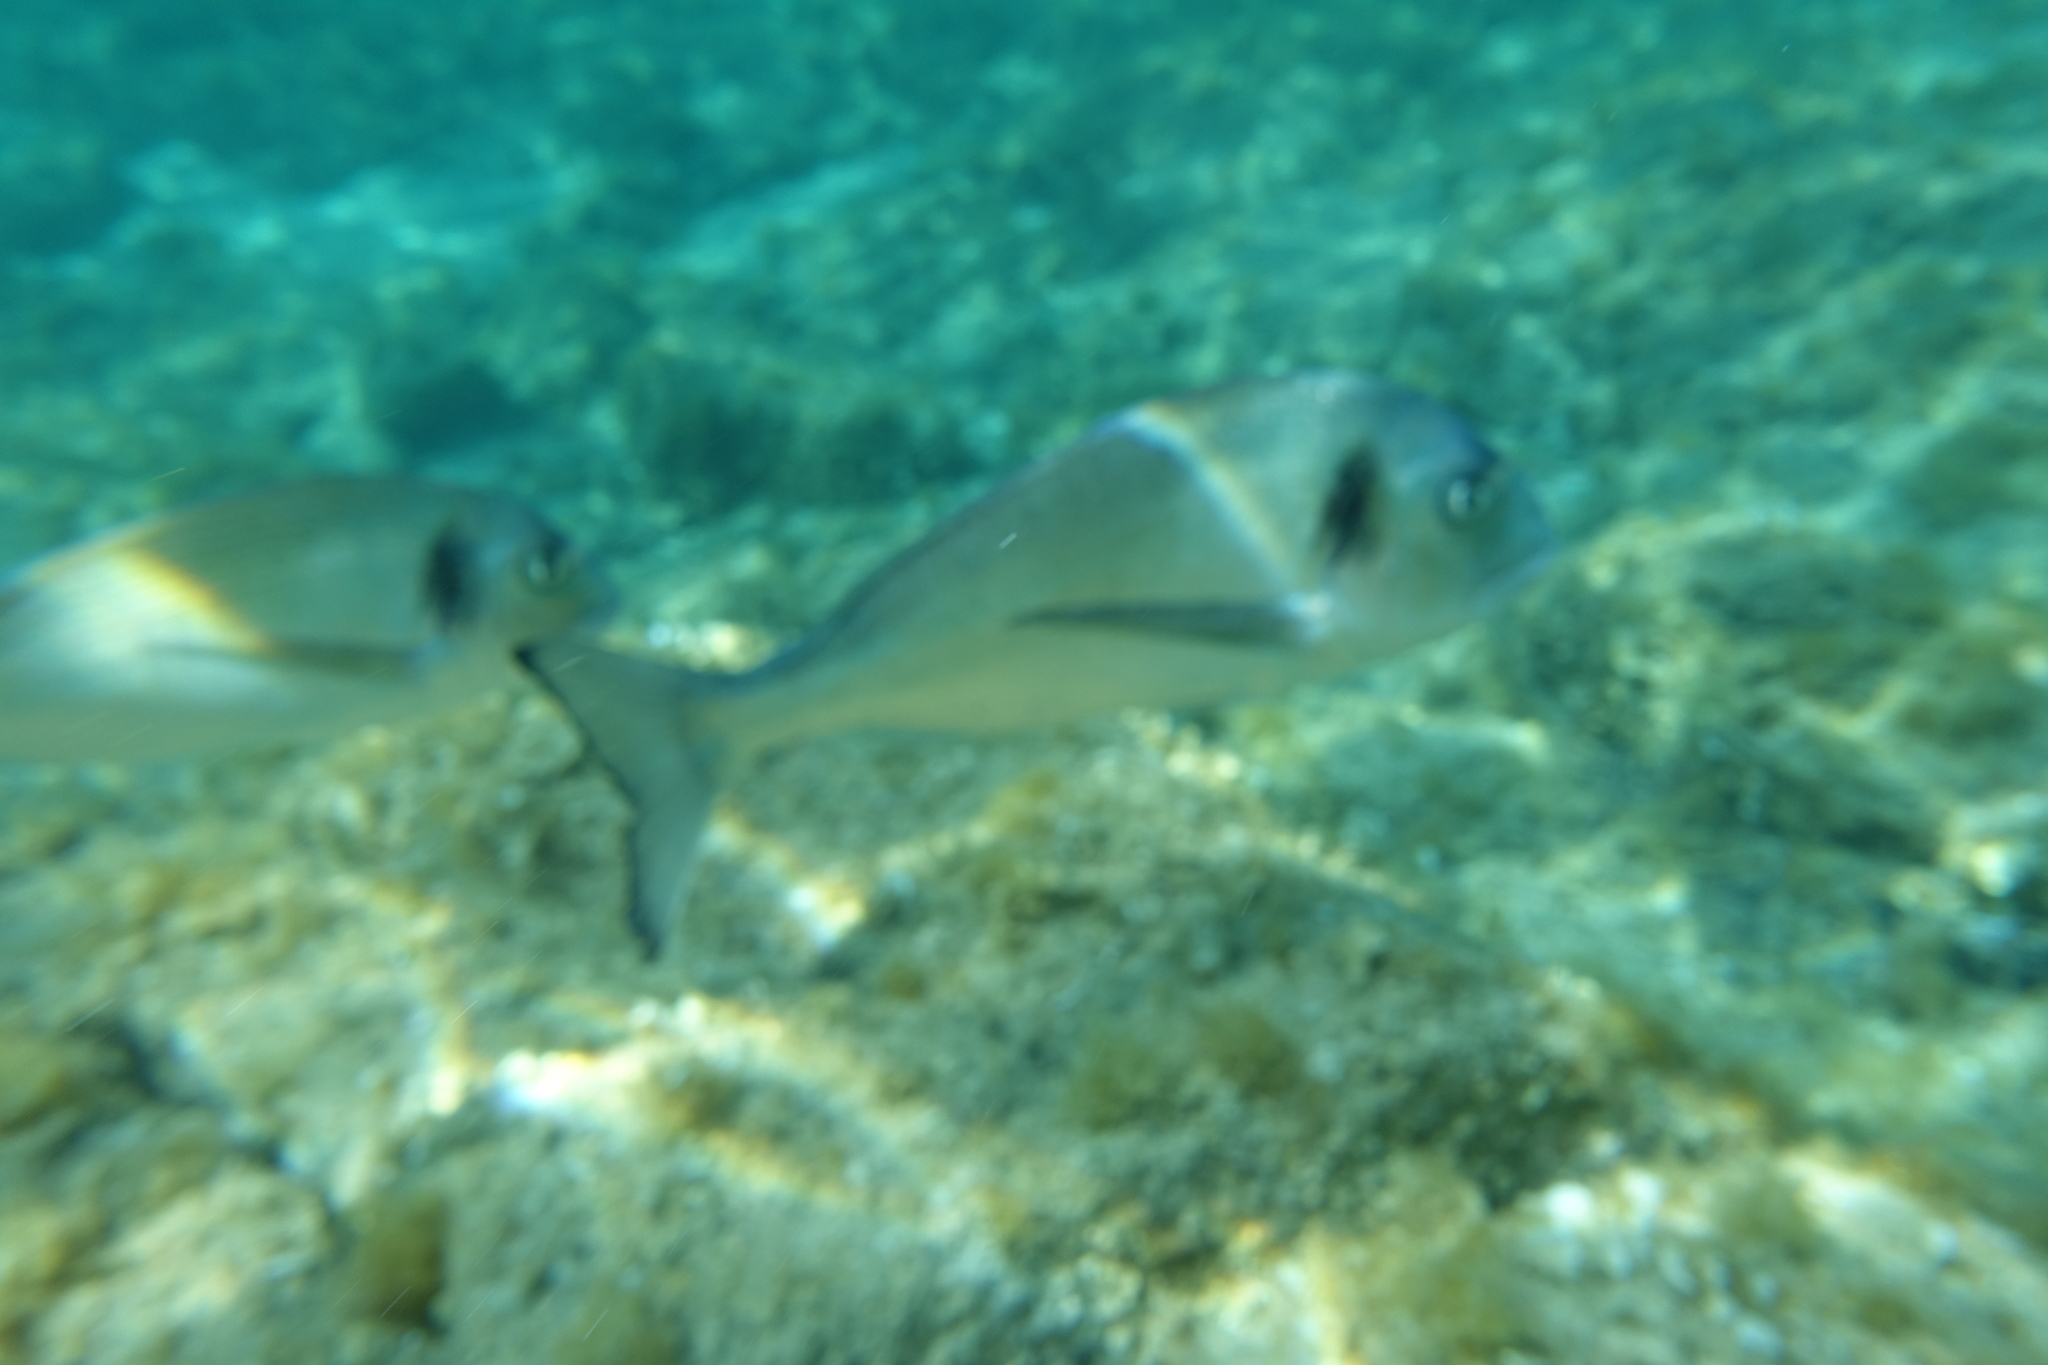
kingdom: Animalia
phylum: Chordata
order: Perciformes
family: Sparidae
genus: Sparus
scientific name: Sparus aurata
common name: Gilthead
